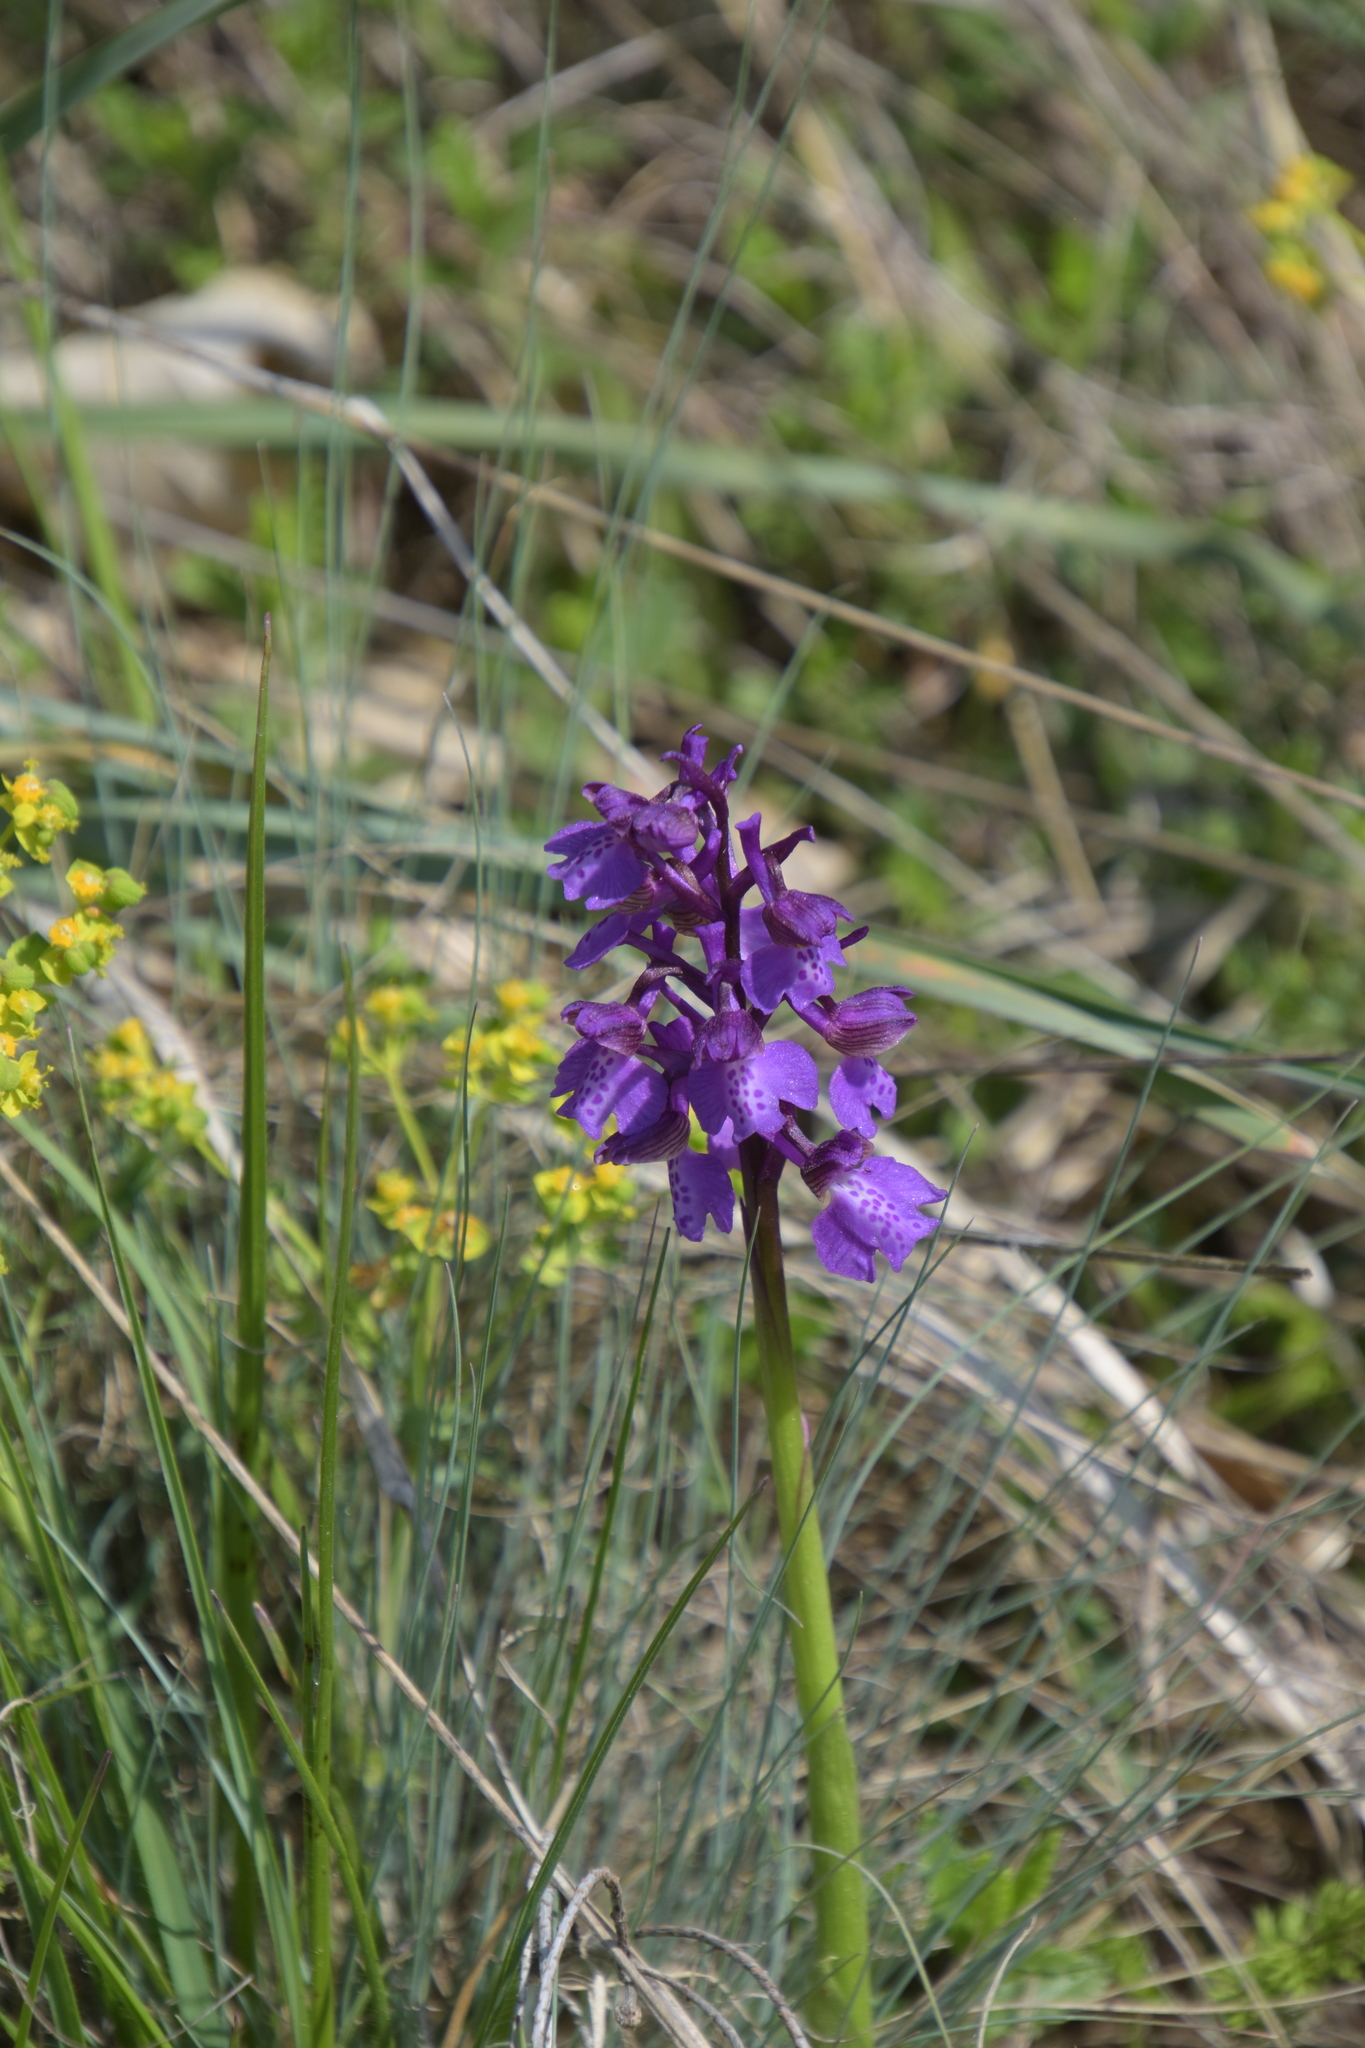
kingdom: Plantae
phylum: Tracheophyta
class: Liliopsida
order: Asparagales
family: Orchidaceae
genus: Anacamptis
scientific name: Anacamptis morio
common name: Green-winged orchid
